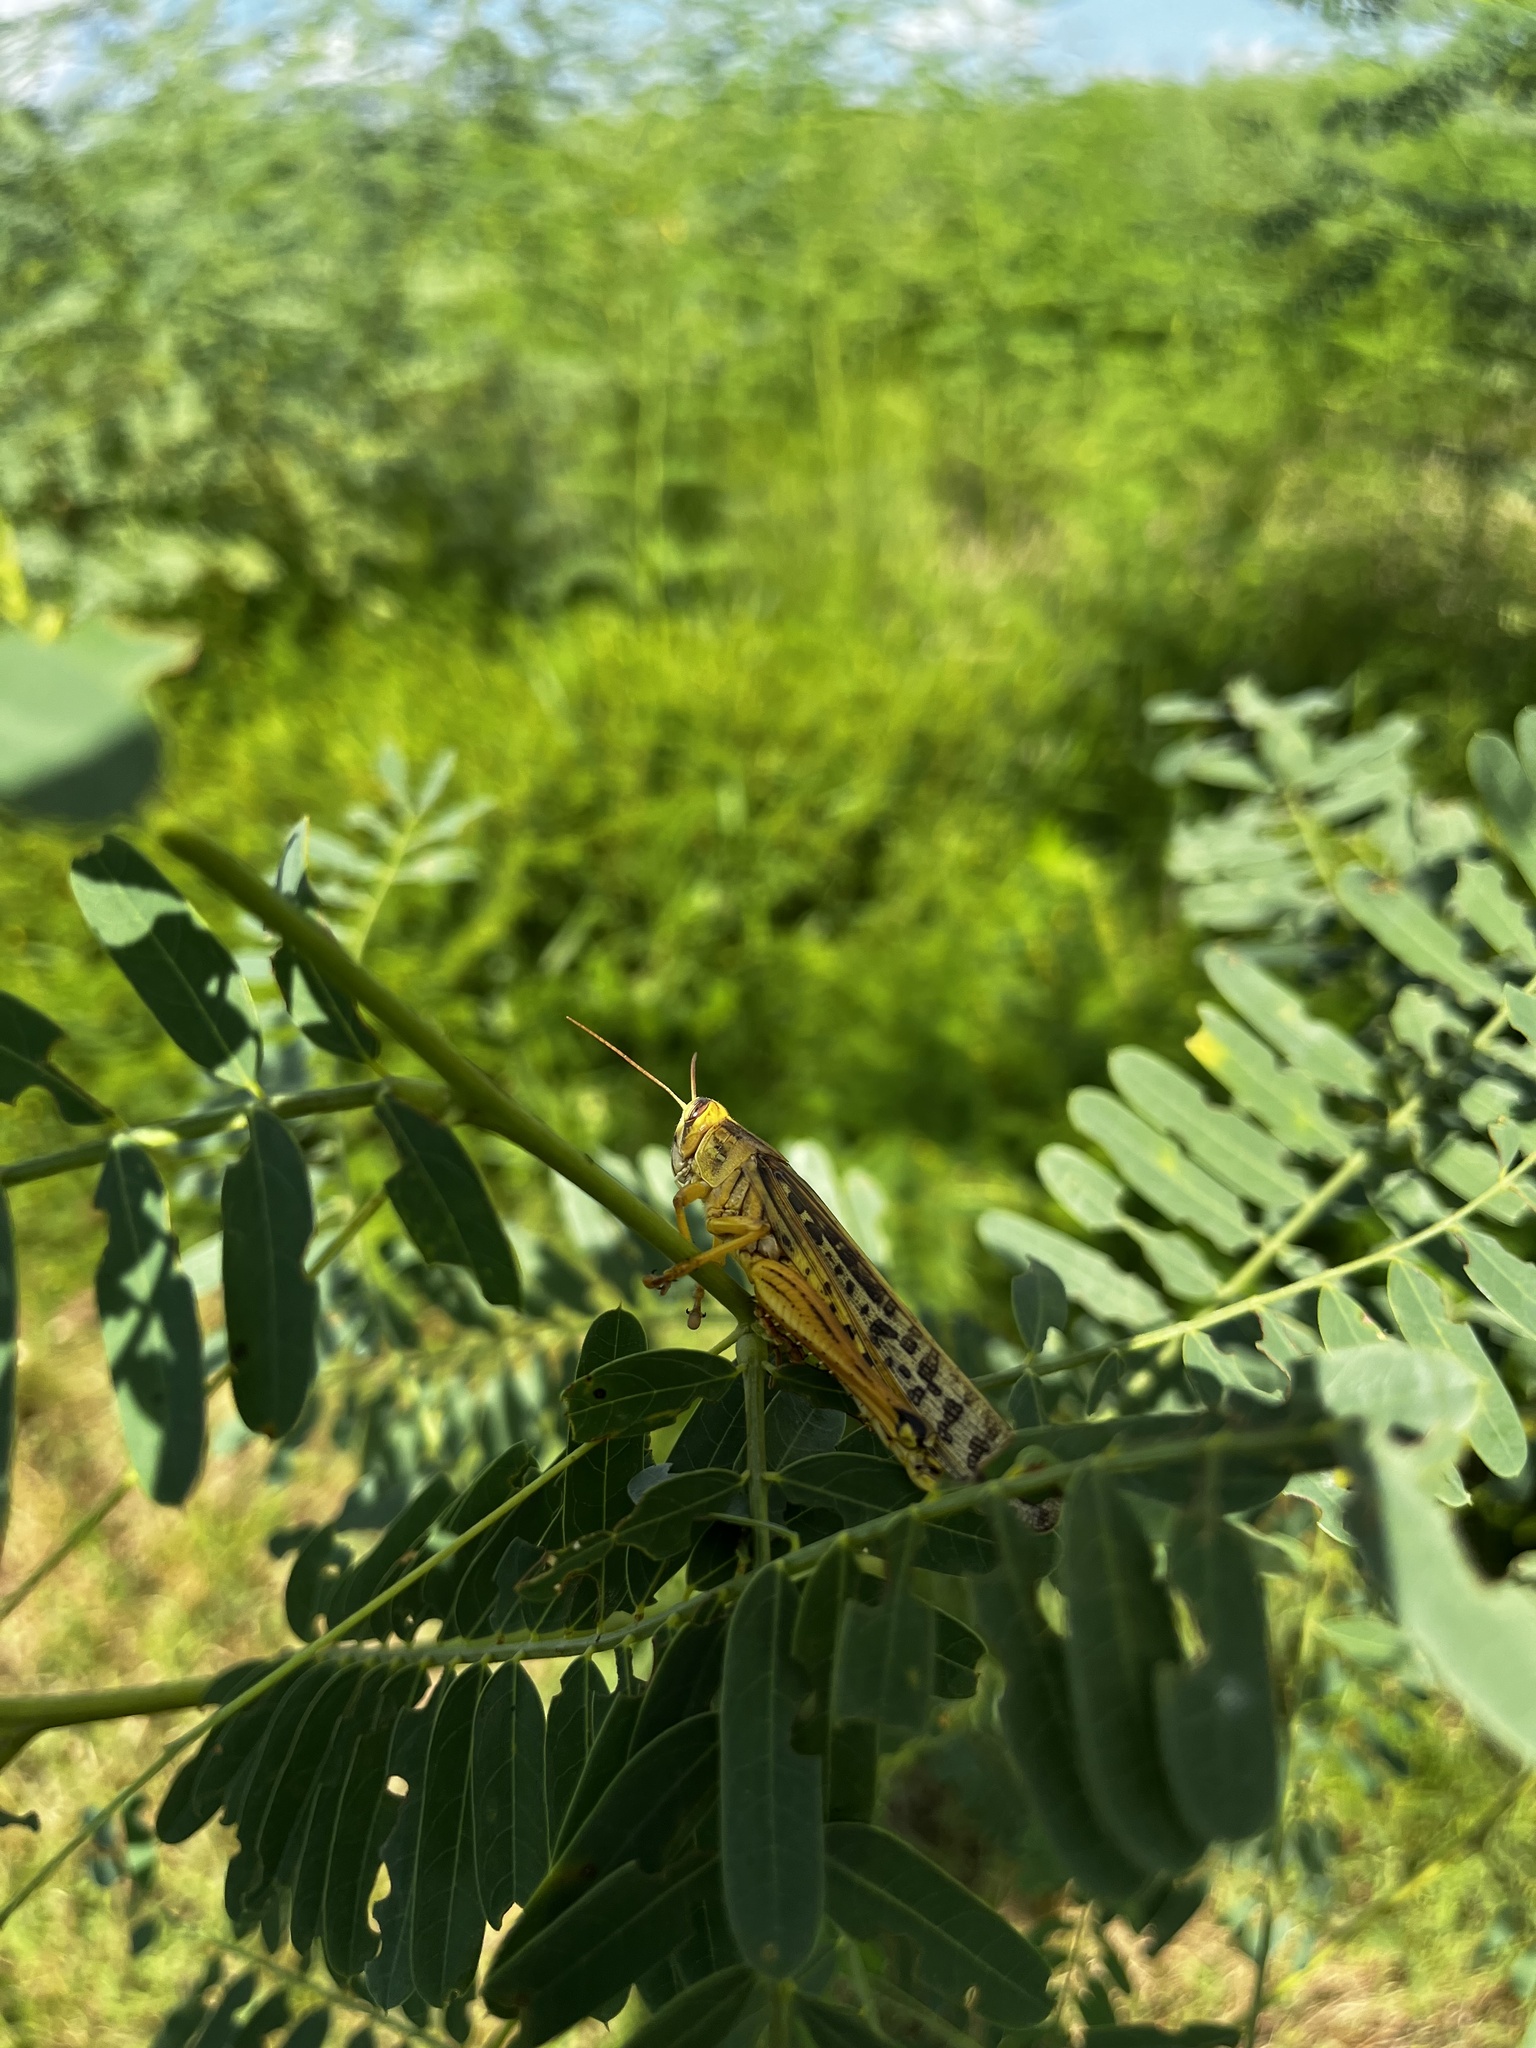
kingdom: Animalia
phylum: Arthropoda
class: Insecta
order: Orthoptera
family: Acrididae
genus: Schistocerca
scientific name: Schistocerca americana
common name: American bird locust
